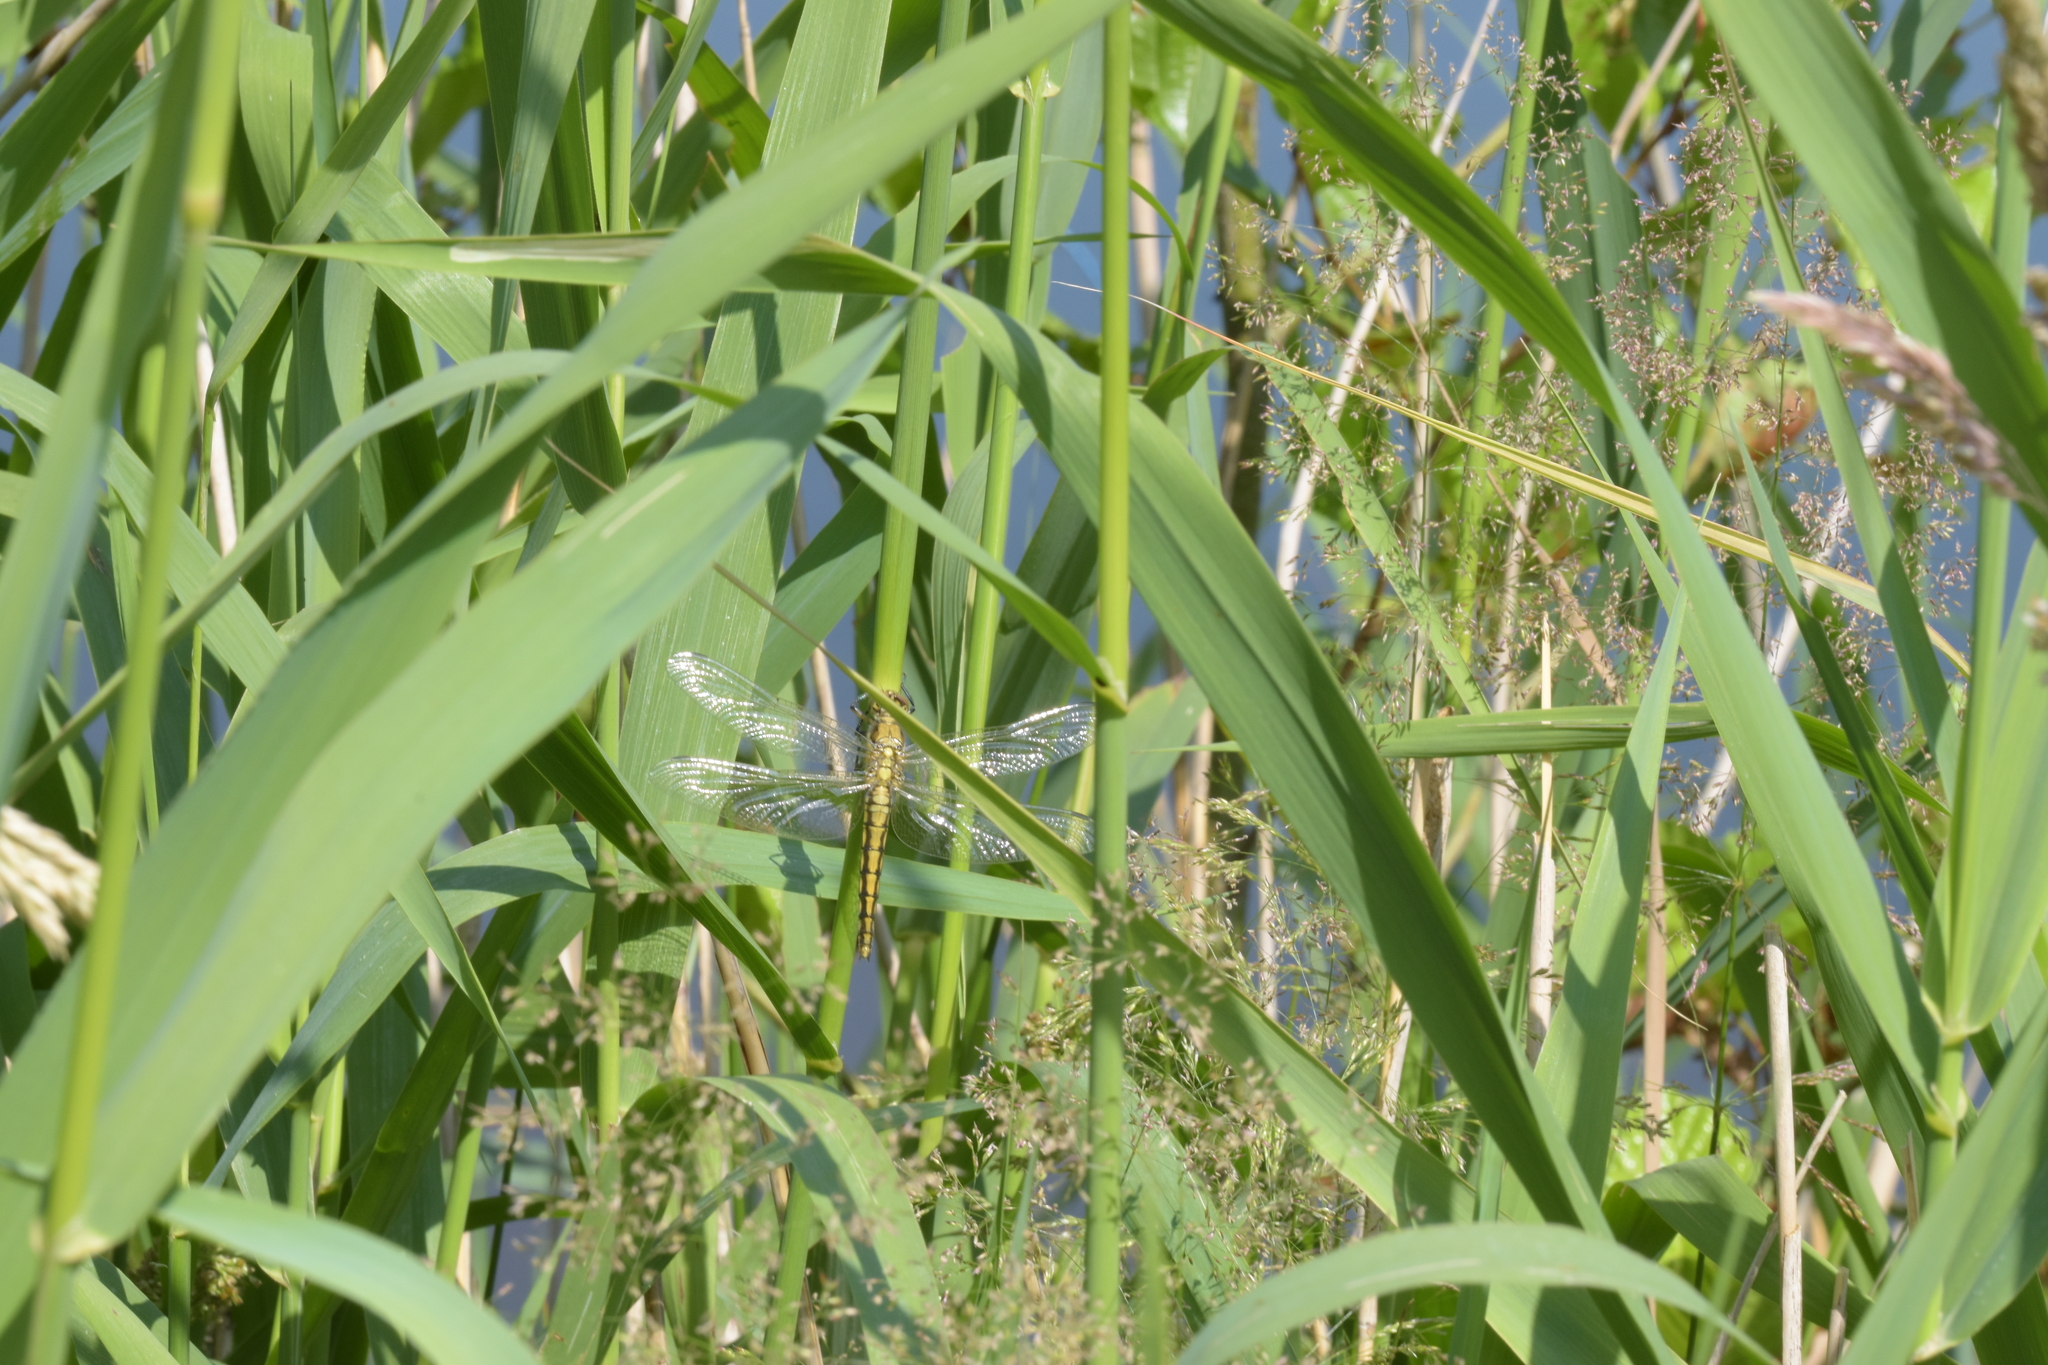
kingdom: Animalia
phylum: Arthropoda
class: Insecta
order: Odonata
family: Libellulidae
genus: Orthetrum
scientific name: Orthetrum cancellatum
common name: Black-tailed skimmer
